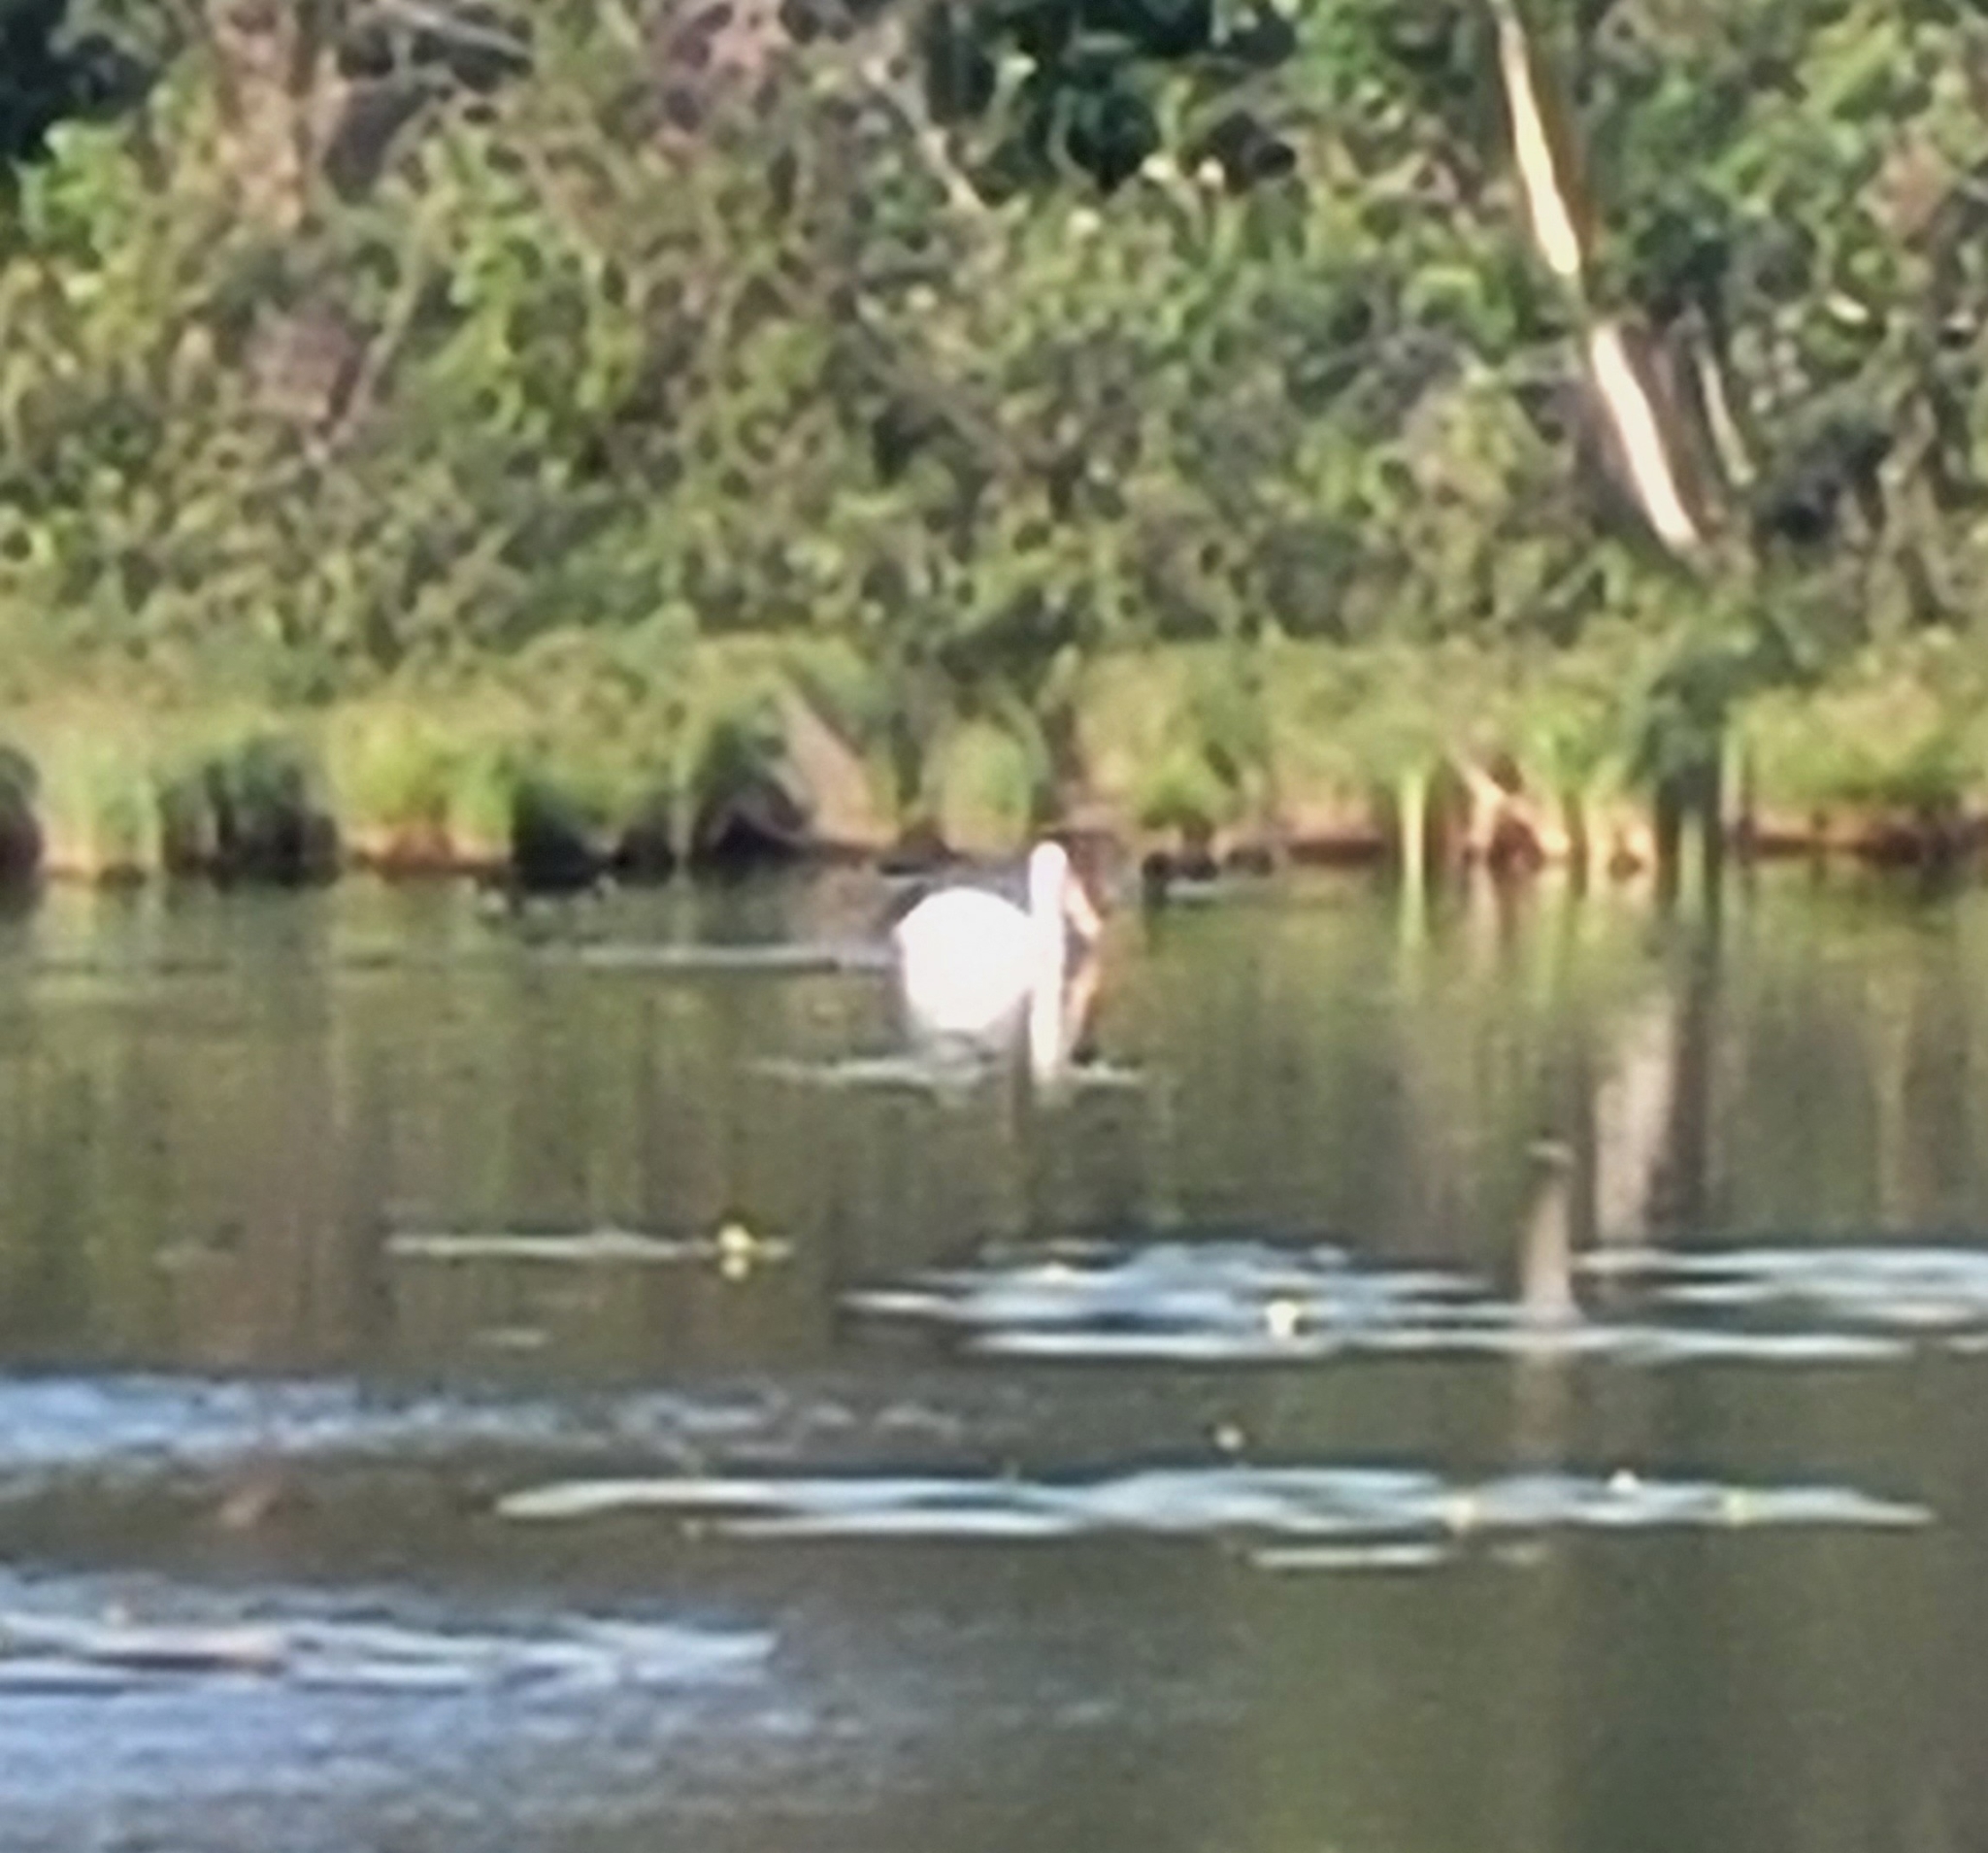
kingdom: Animalia
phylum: Chordata
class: Aves
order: Pelecaniformes
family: Pelecanidae
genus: Pelecanus
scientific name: Pelecanus erythrorhynchos
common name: American white pelican
